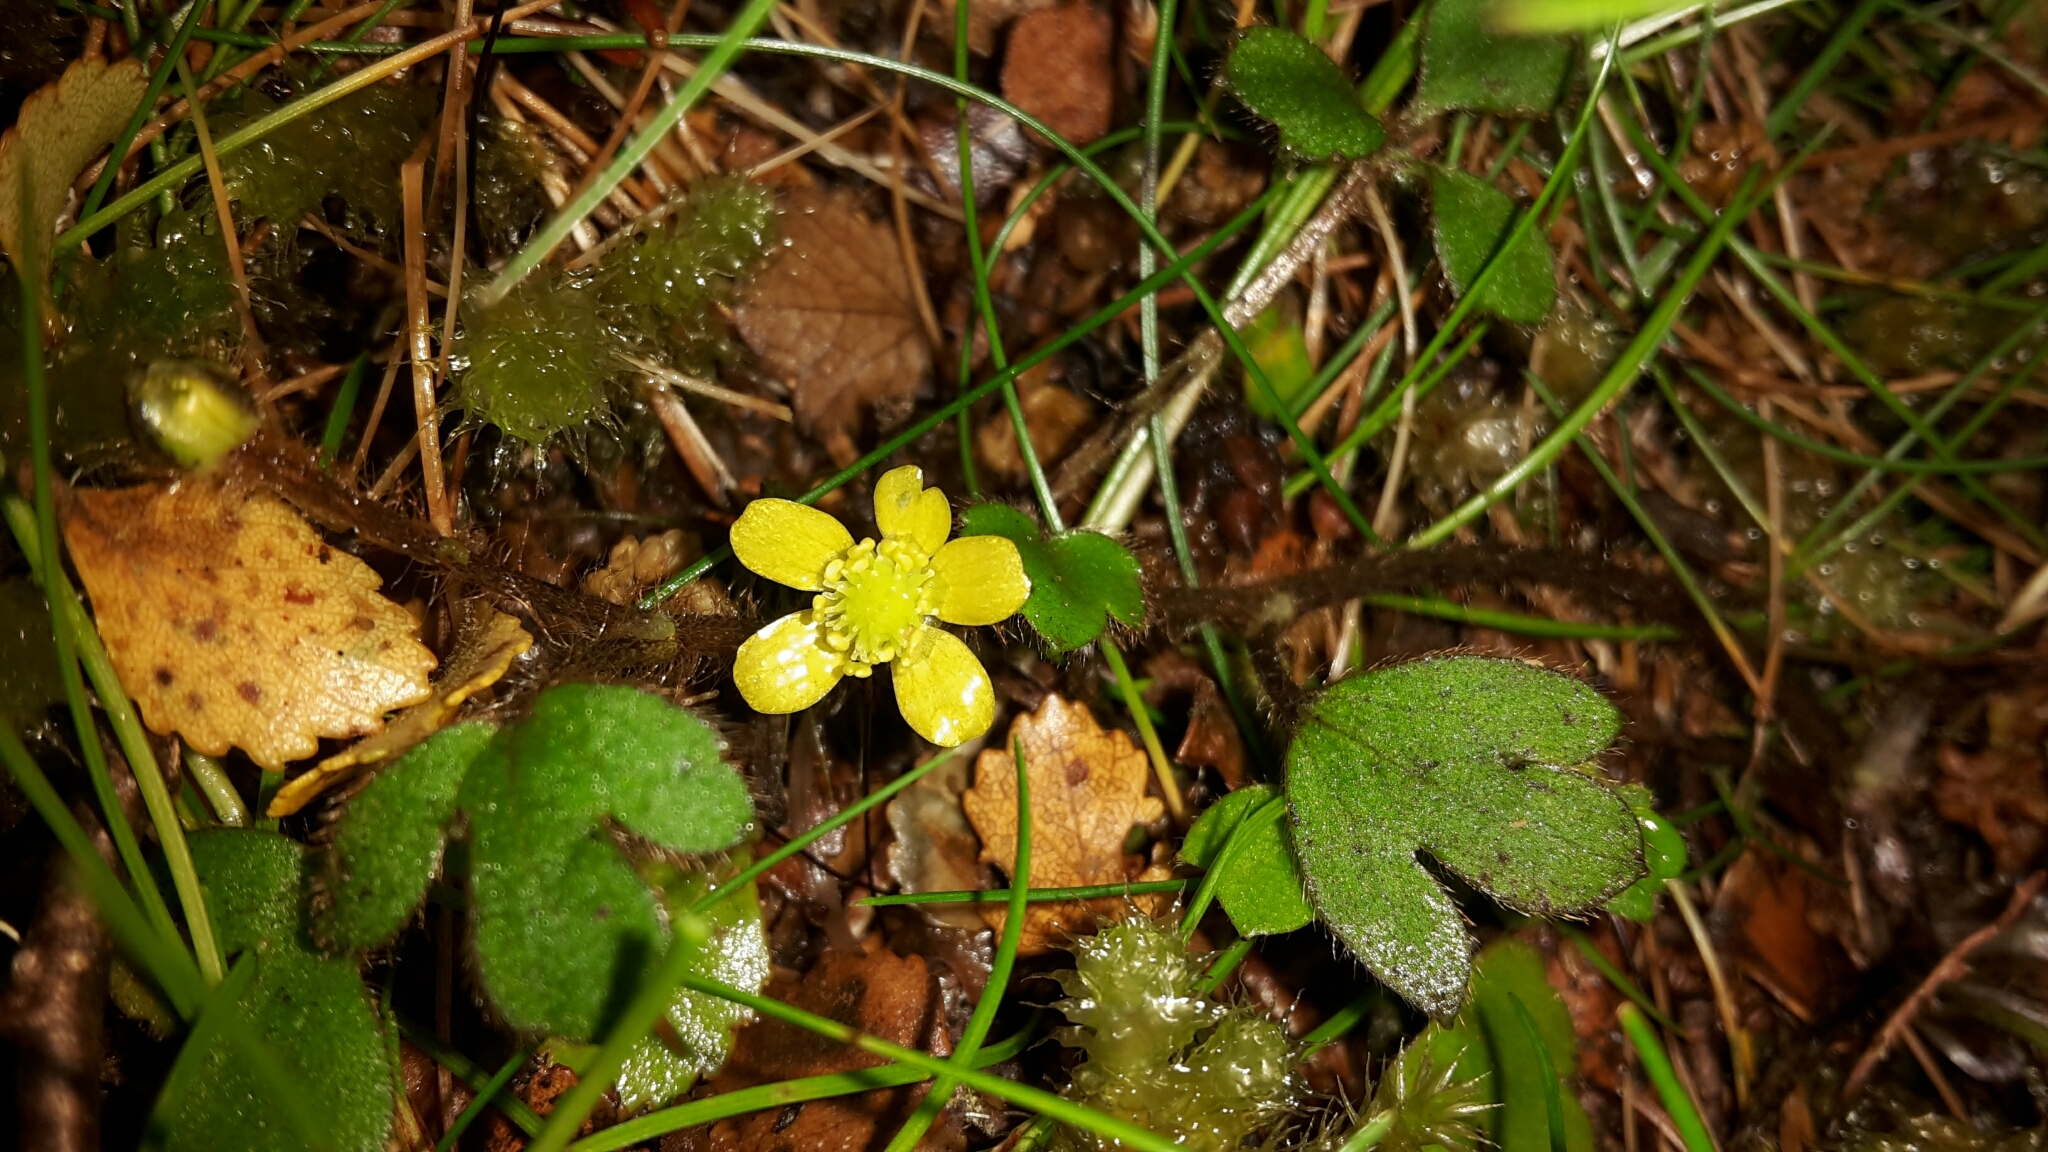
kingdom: Plantae
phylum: Tracheophyta
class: Magnoliopsida
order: Ranunculales
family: Ranunculaceae
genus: Ranunculus
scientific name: Ranunculus reflexus
